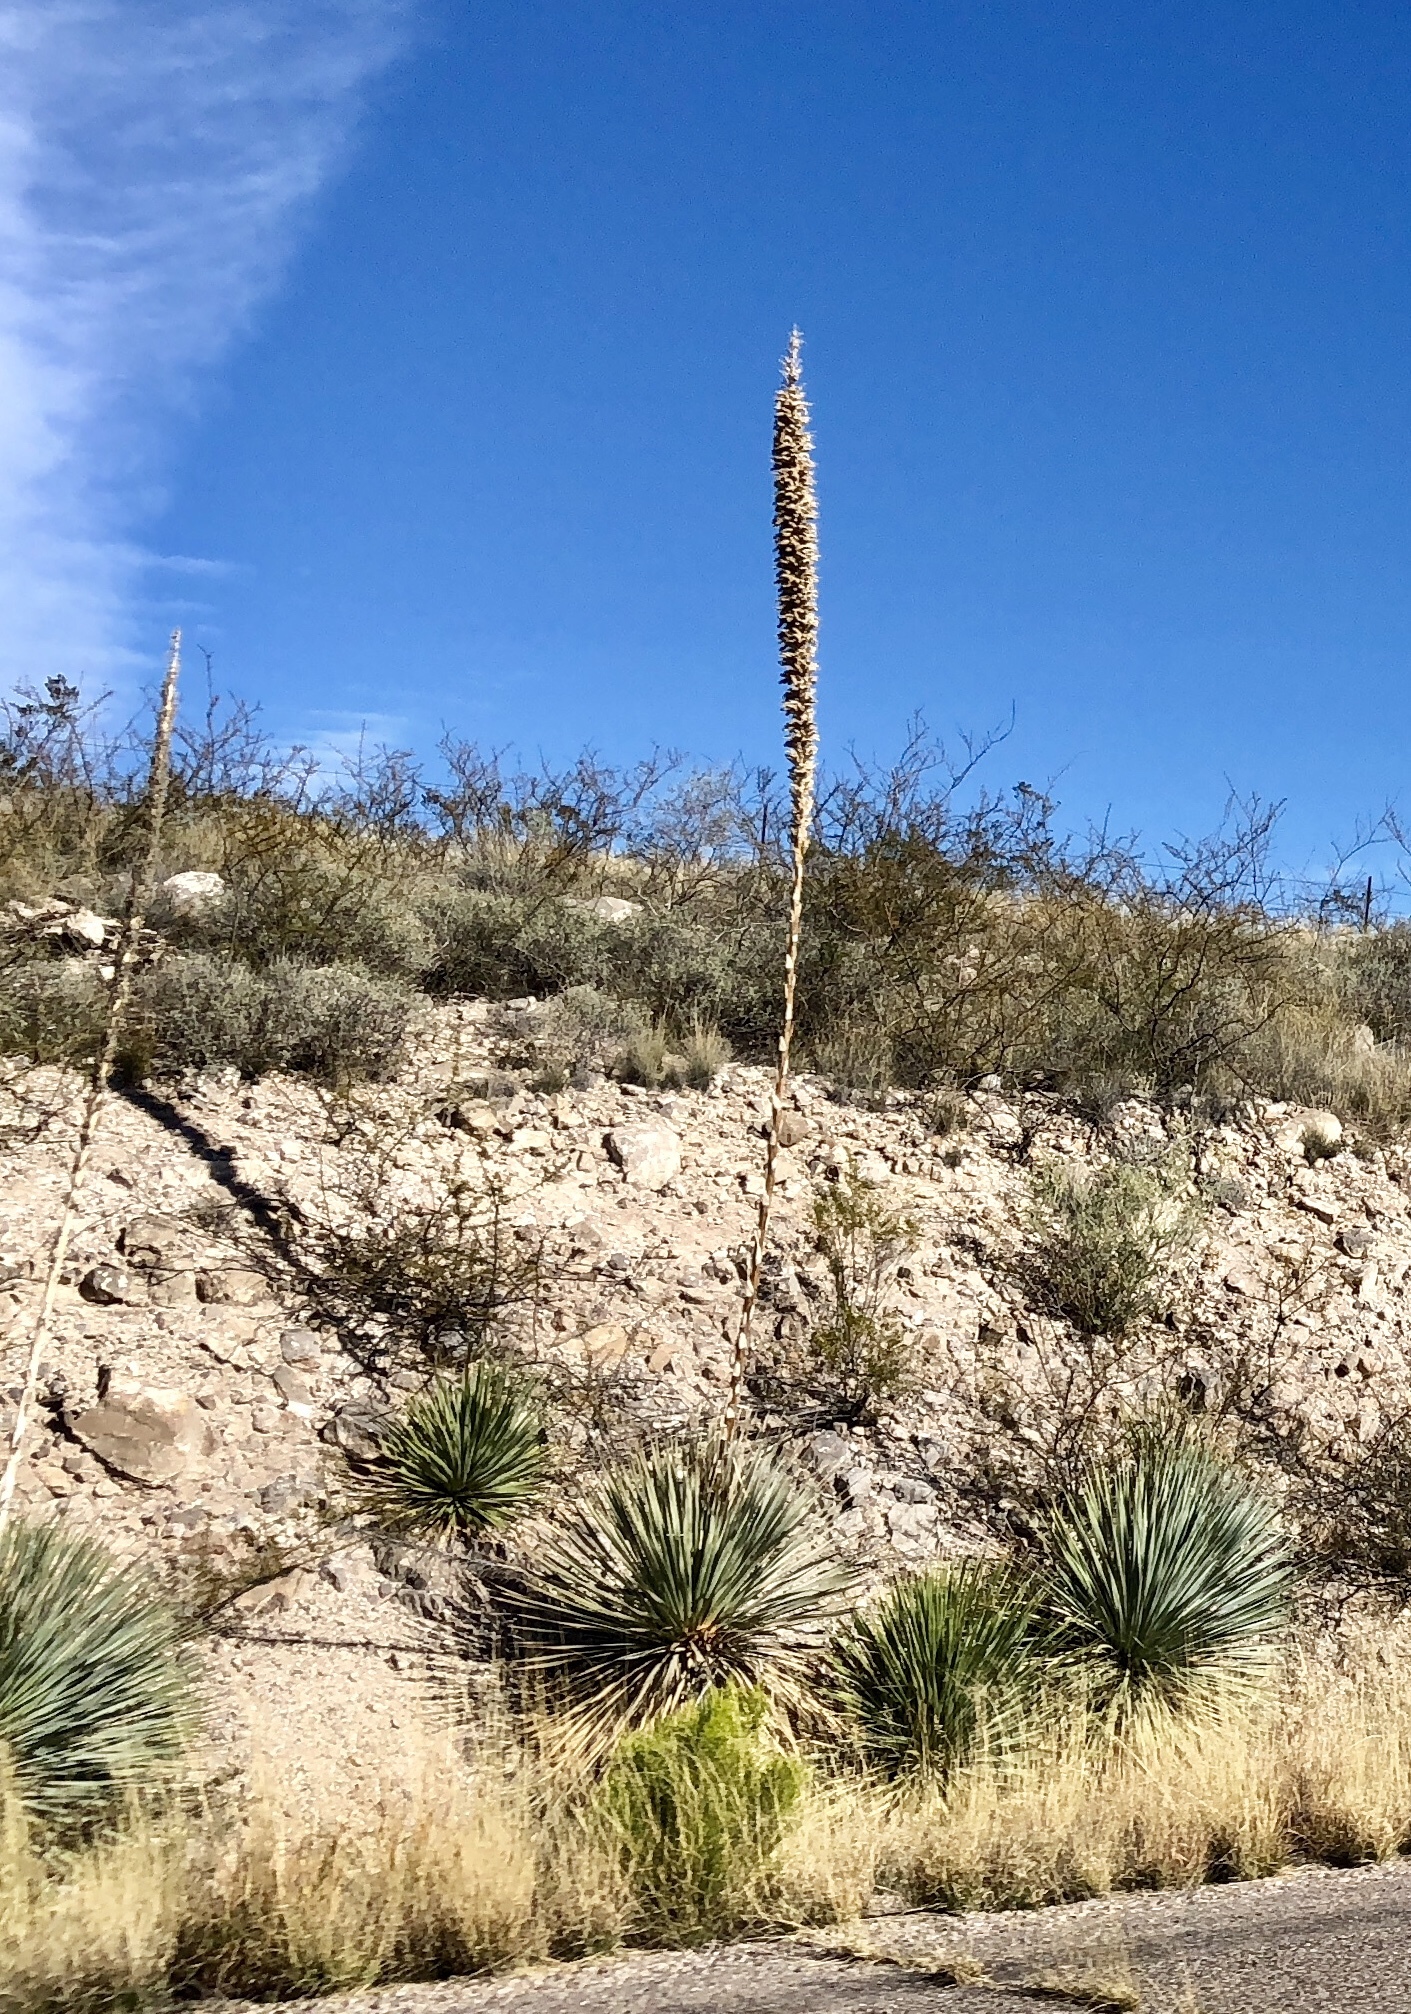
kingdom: Plantae
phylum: Tracheophyta
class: Liliopsida
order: Asparagales
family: Asparagaceae
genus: Dasylirion
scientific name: Dasylirion wheeleri
